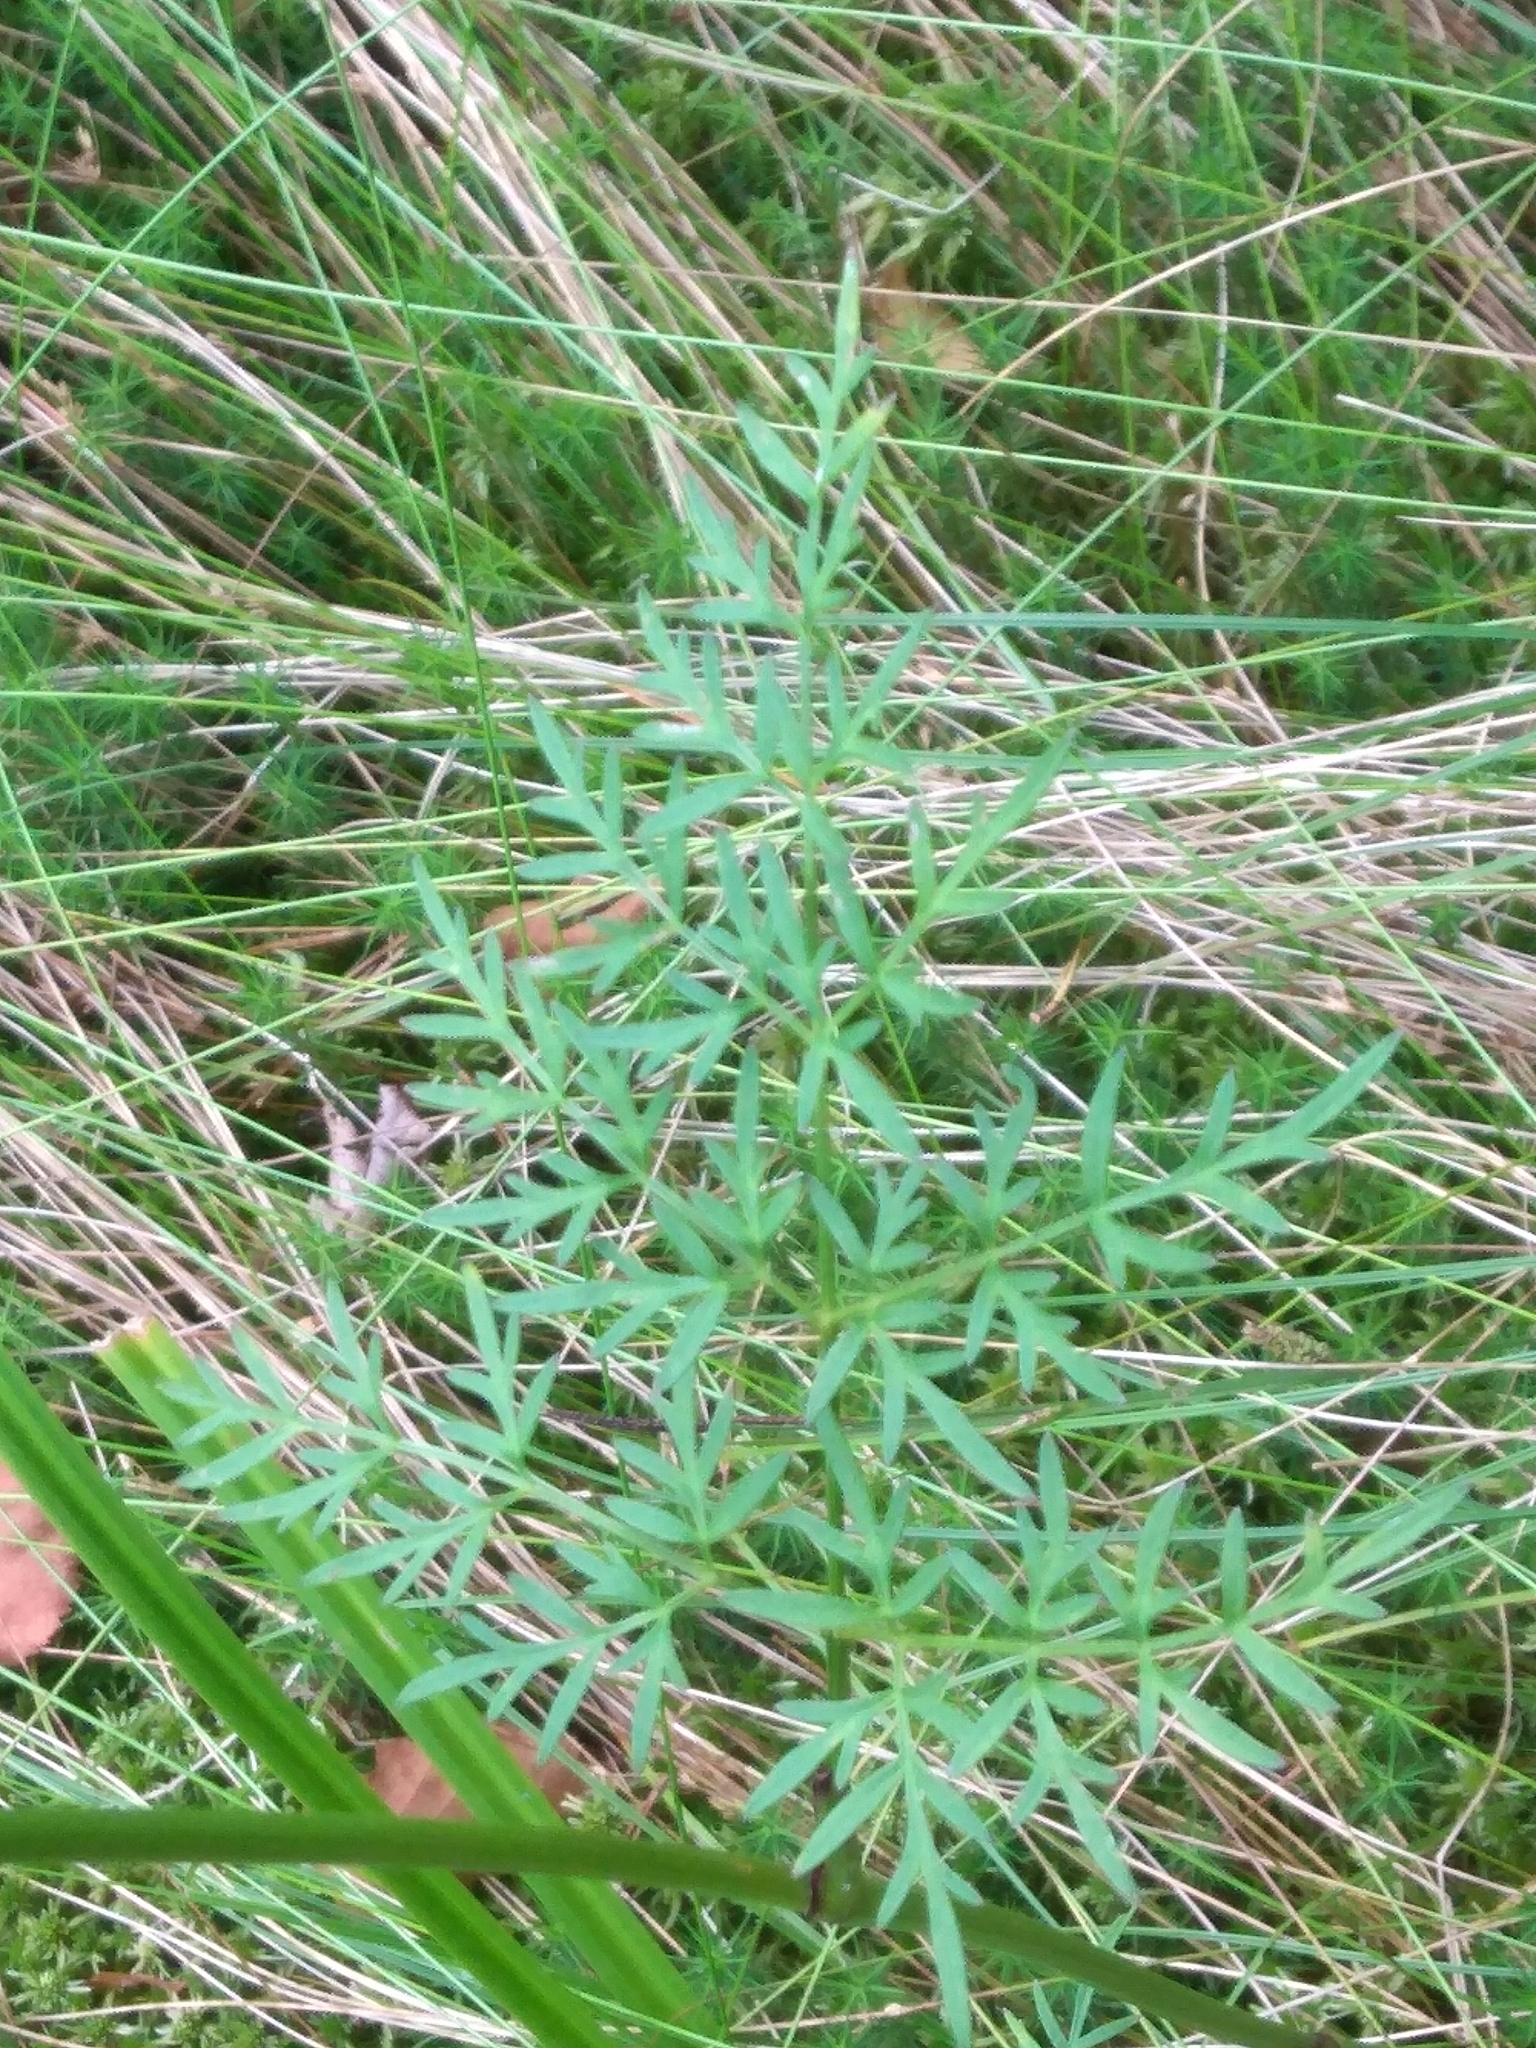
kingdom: Plantae
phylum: Tracheophyta
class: Magnoliopsida
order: Apiales
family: Apiaceae
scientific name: Apiaceae
